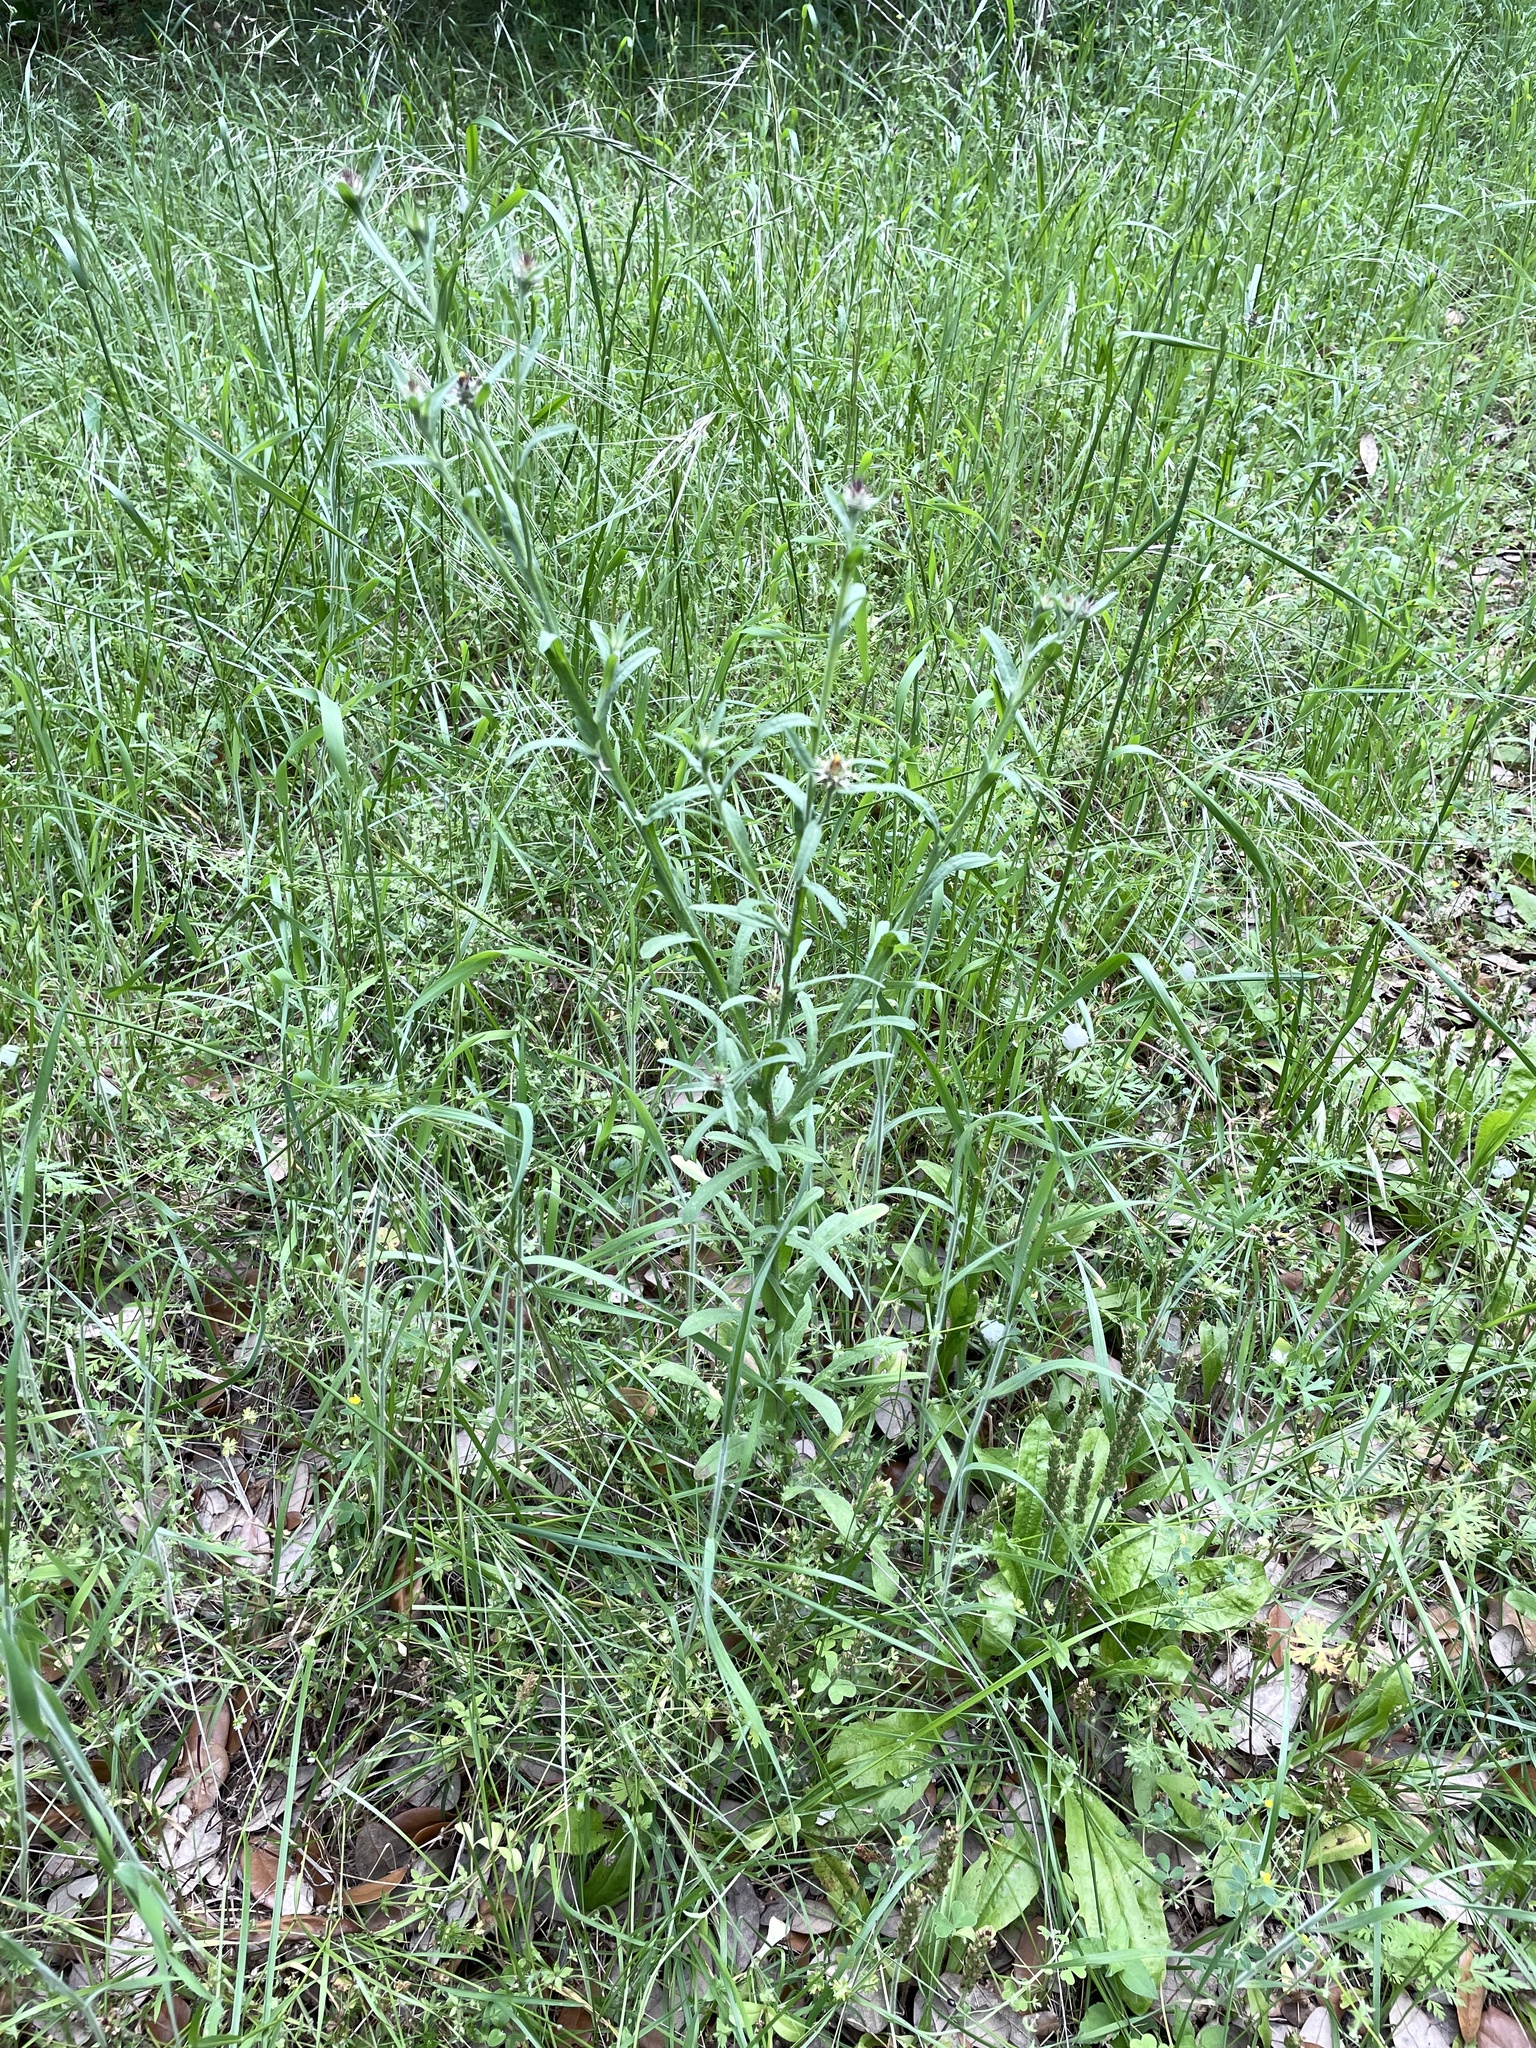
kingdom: Plantae
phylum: Tracheophyta
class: Magnoliopsida
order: Asterales
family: Asteraceae
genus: Centaurea
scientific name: Centaurea melitensis
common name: Maltese star-thistle
